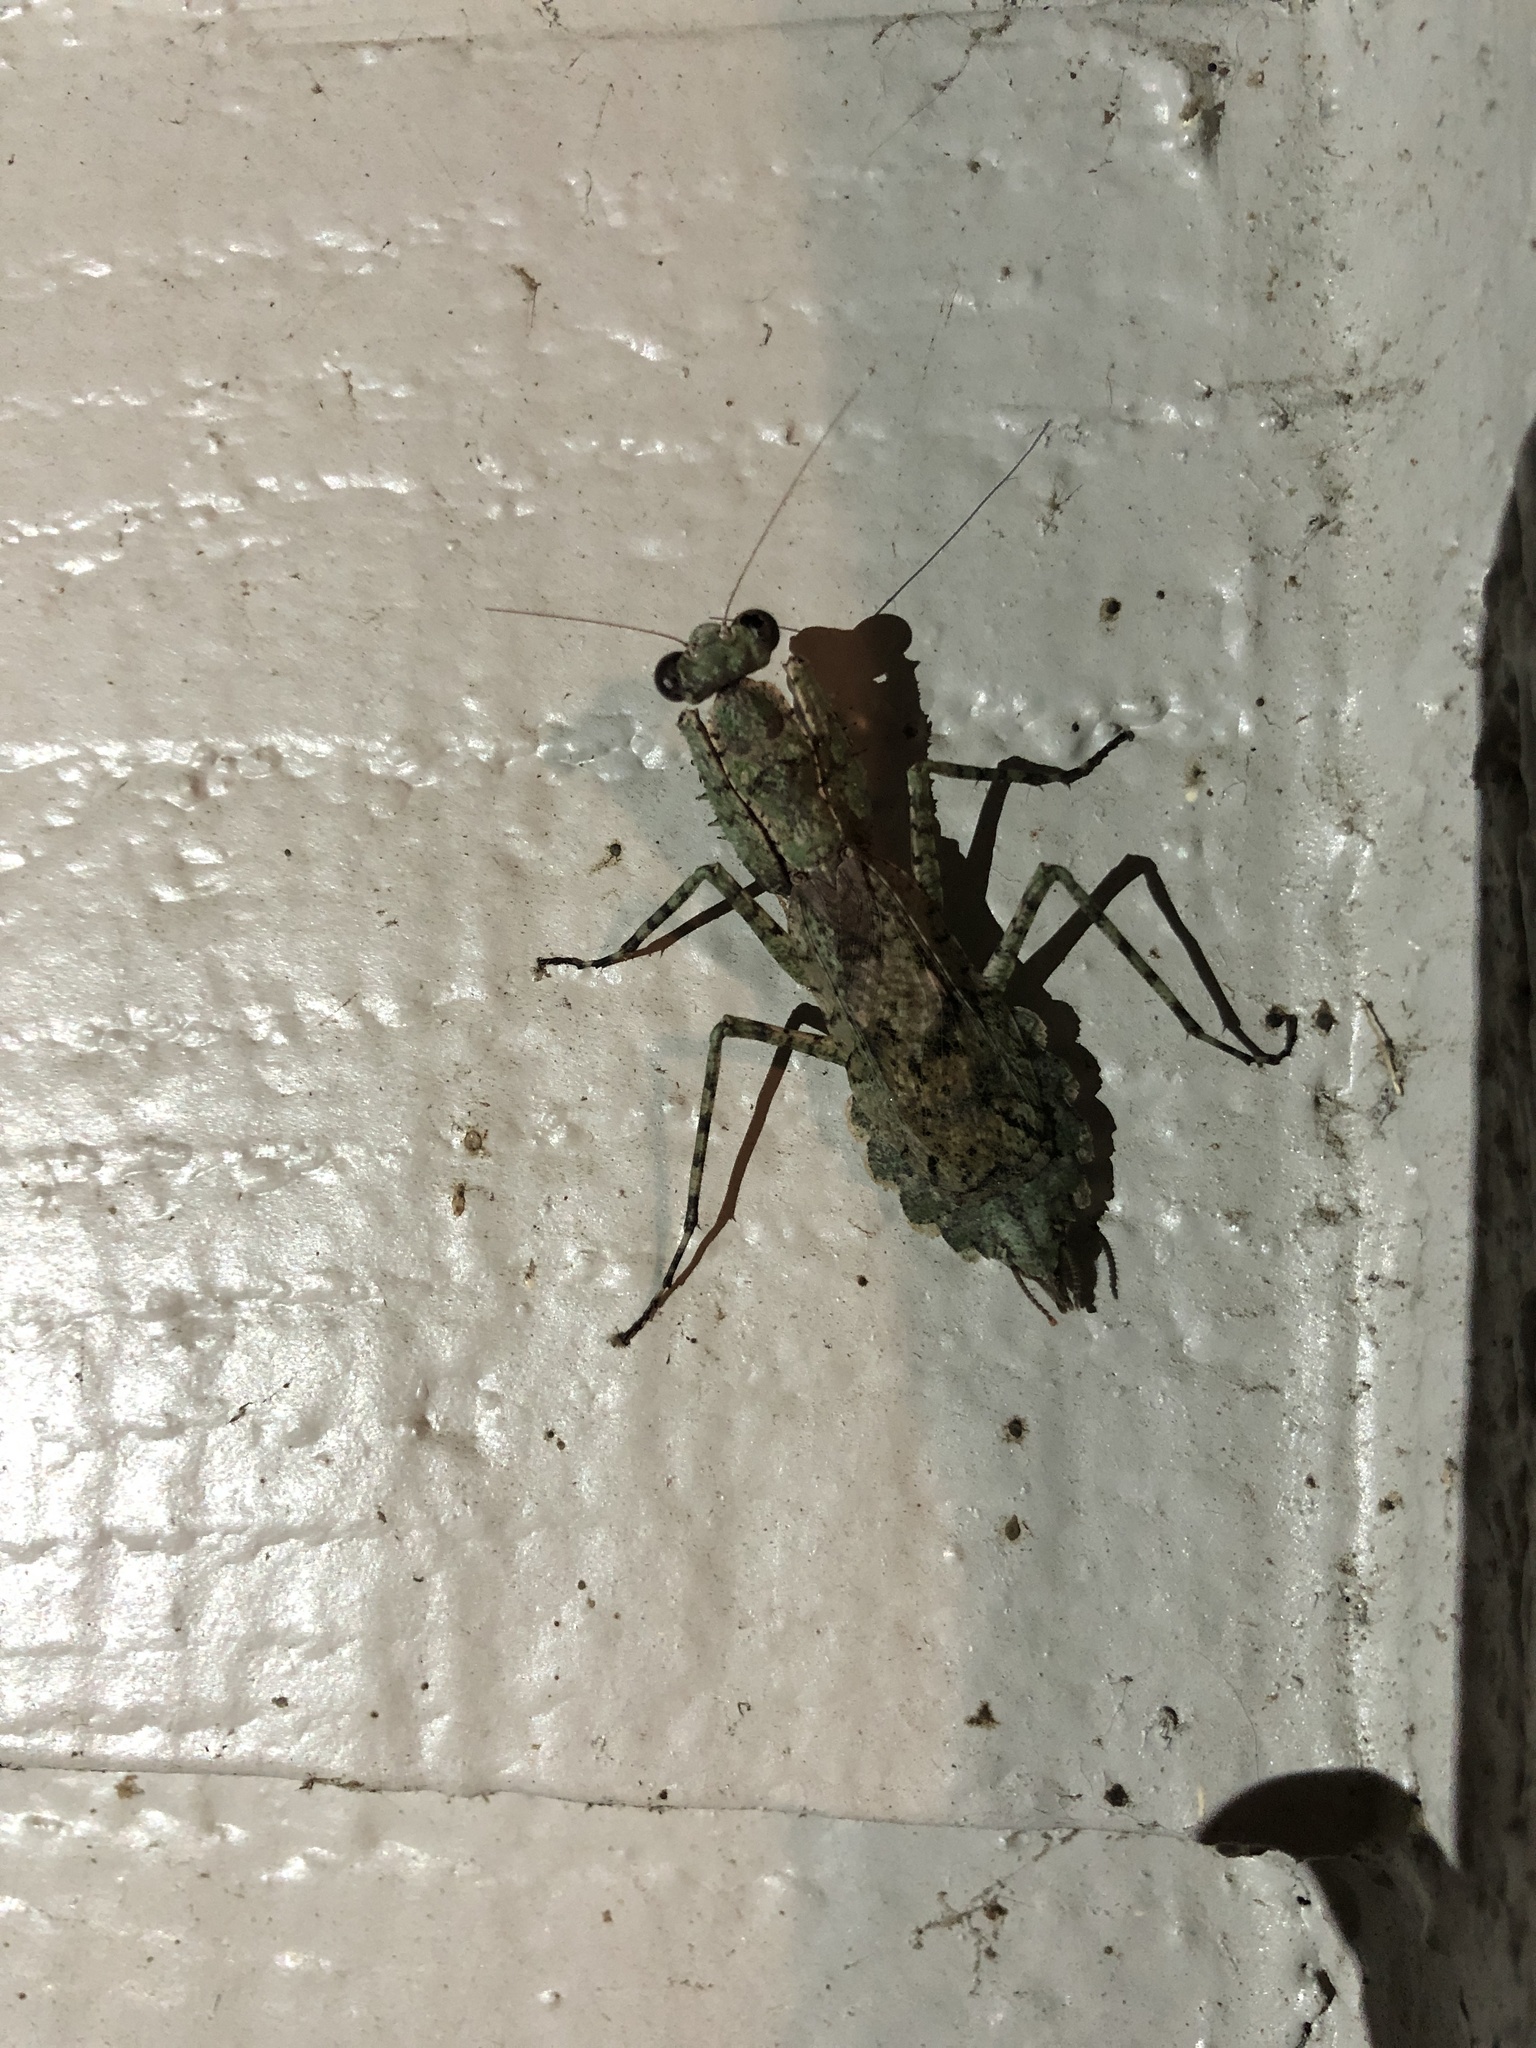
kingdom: Animalia
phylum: Arthropoda
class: Insecta
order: Mantodea
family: Epaphroditidae
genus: Gonatista
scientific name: Gonatista grisea
